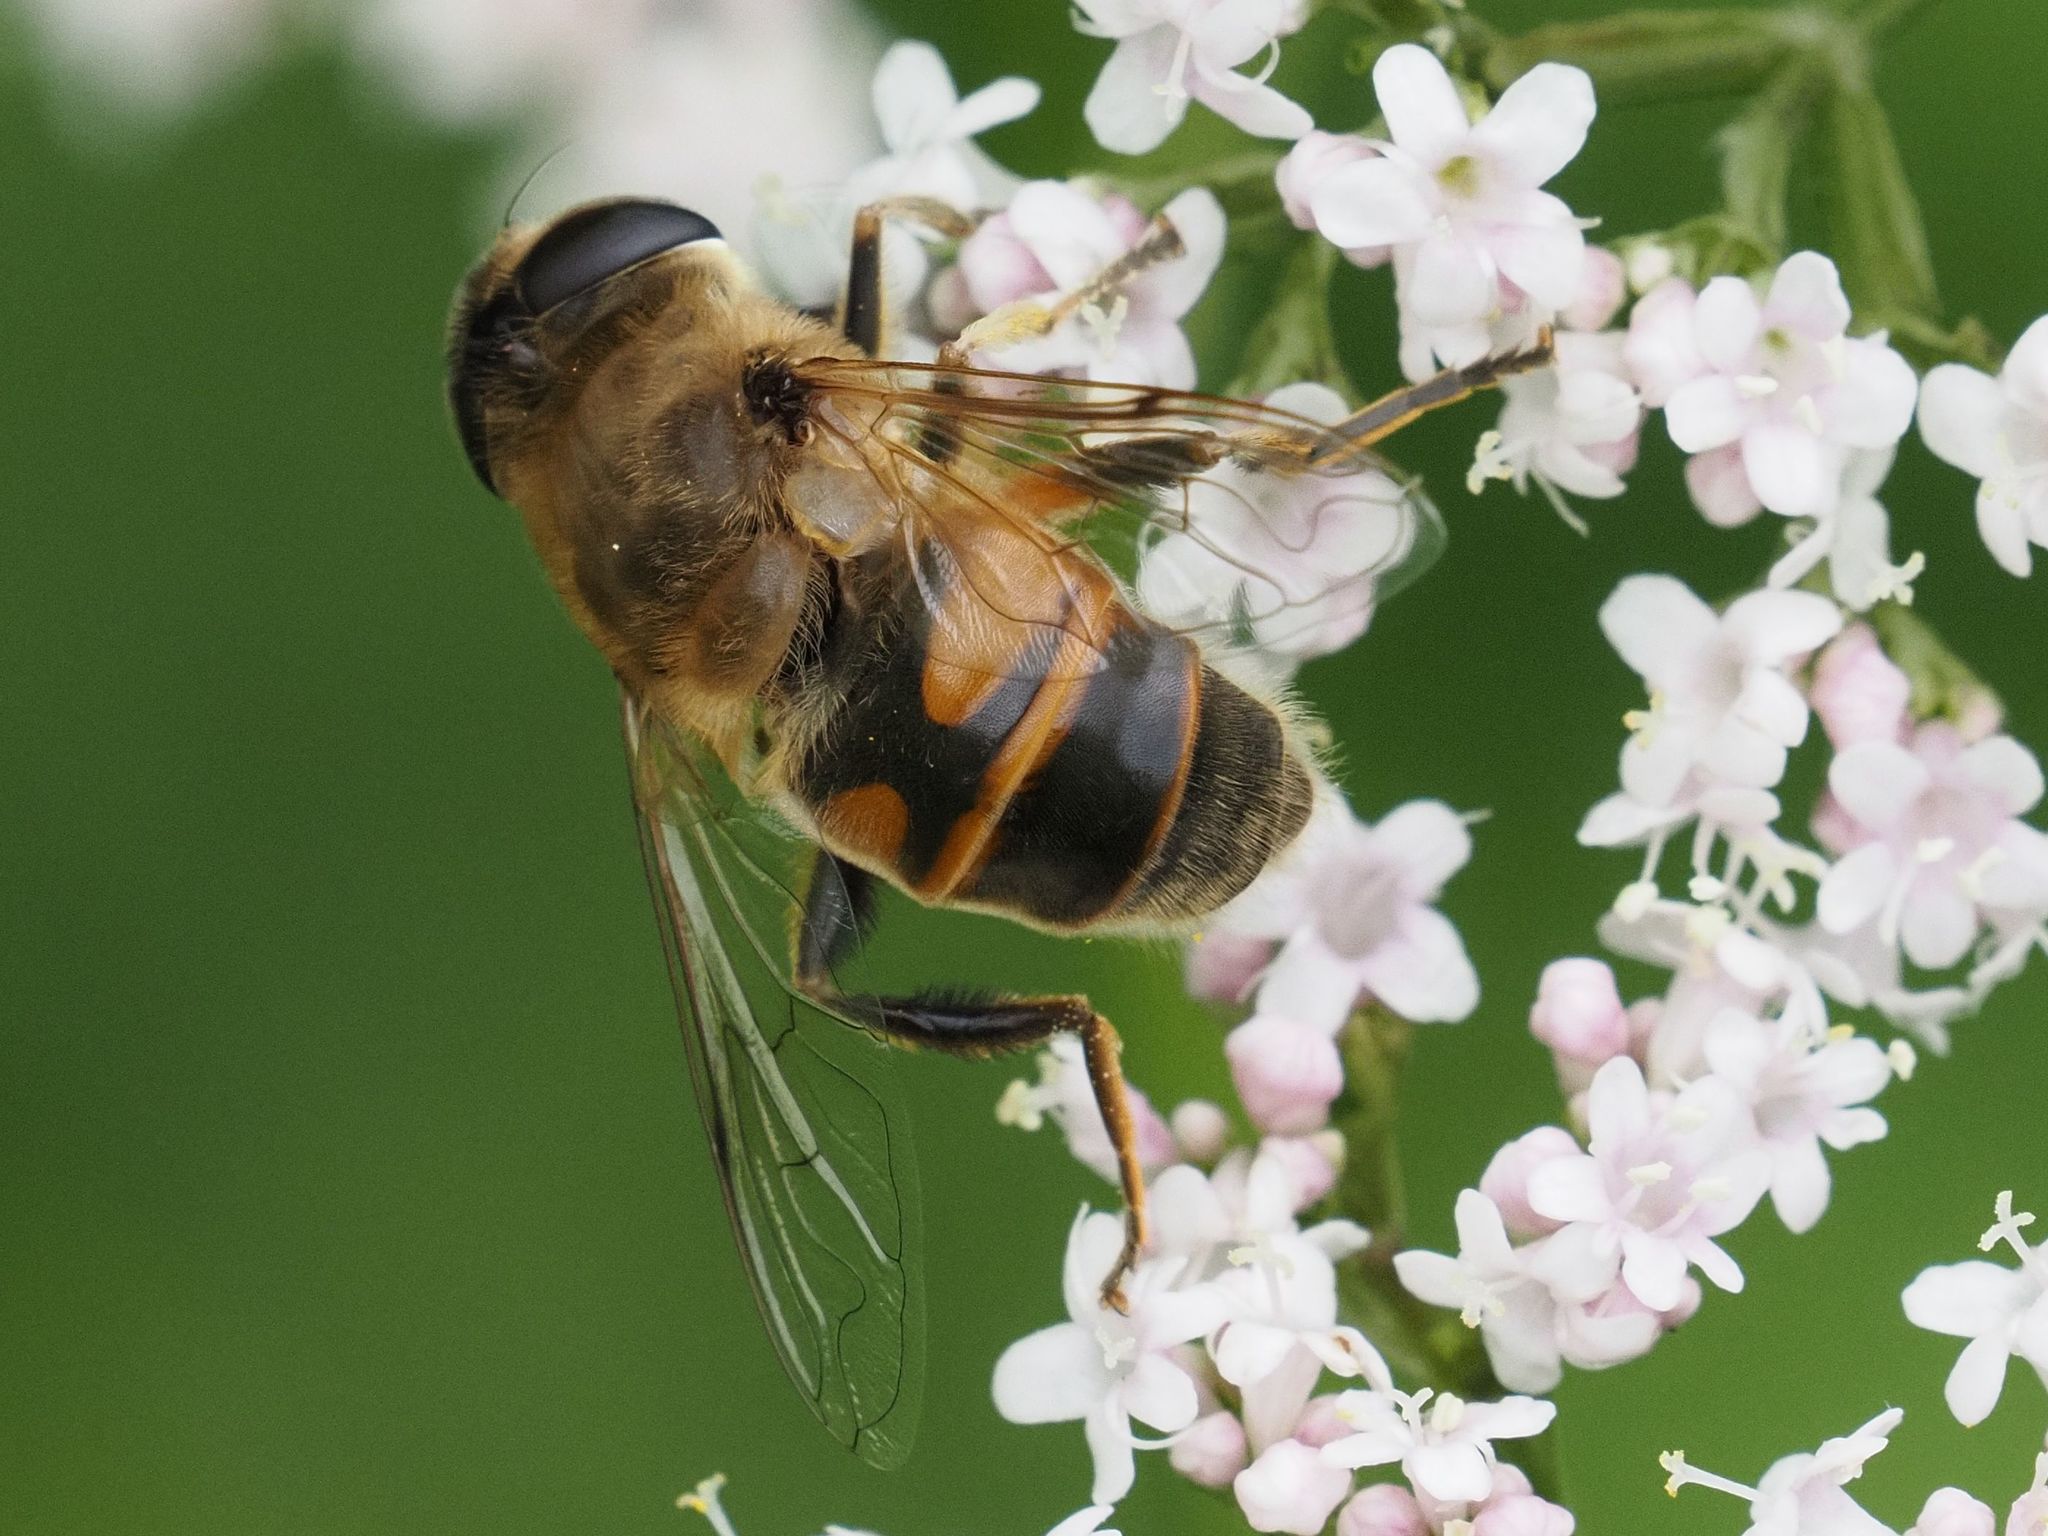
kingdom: Animalia
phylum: Arthropoda
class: Insecta
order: Diptera
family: Syrphidae
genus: Eristalis
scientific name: Eristalis tenax
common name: Drone fly
